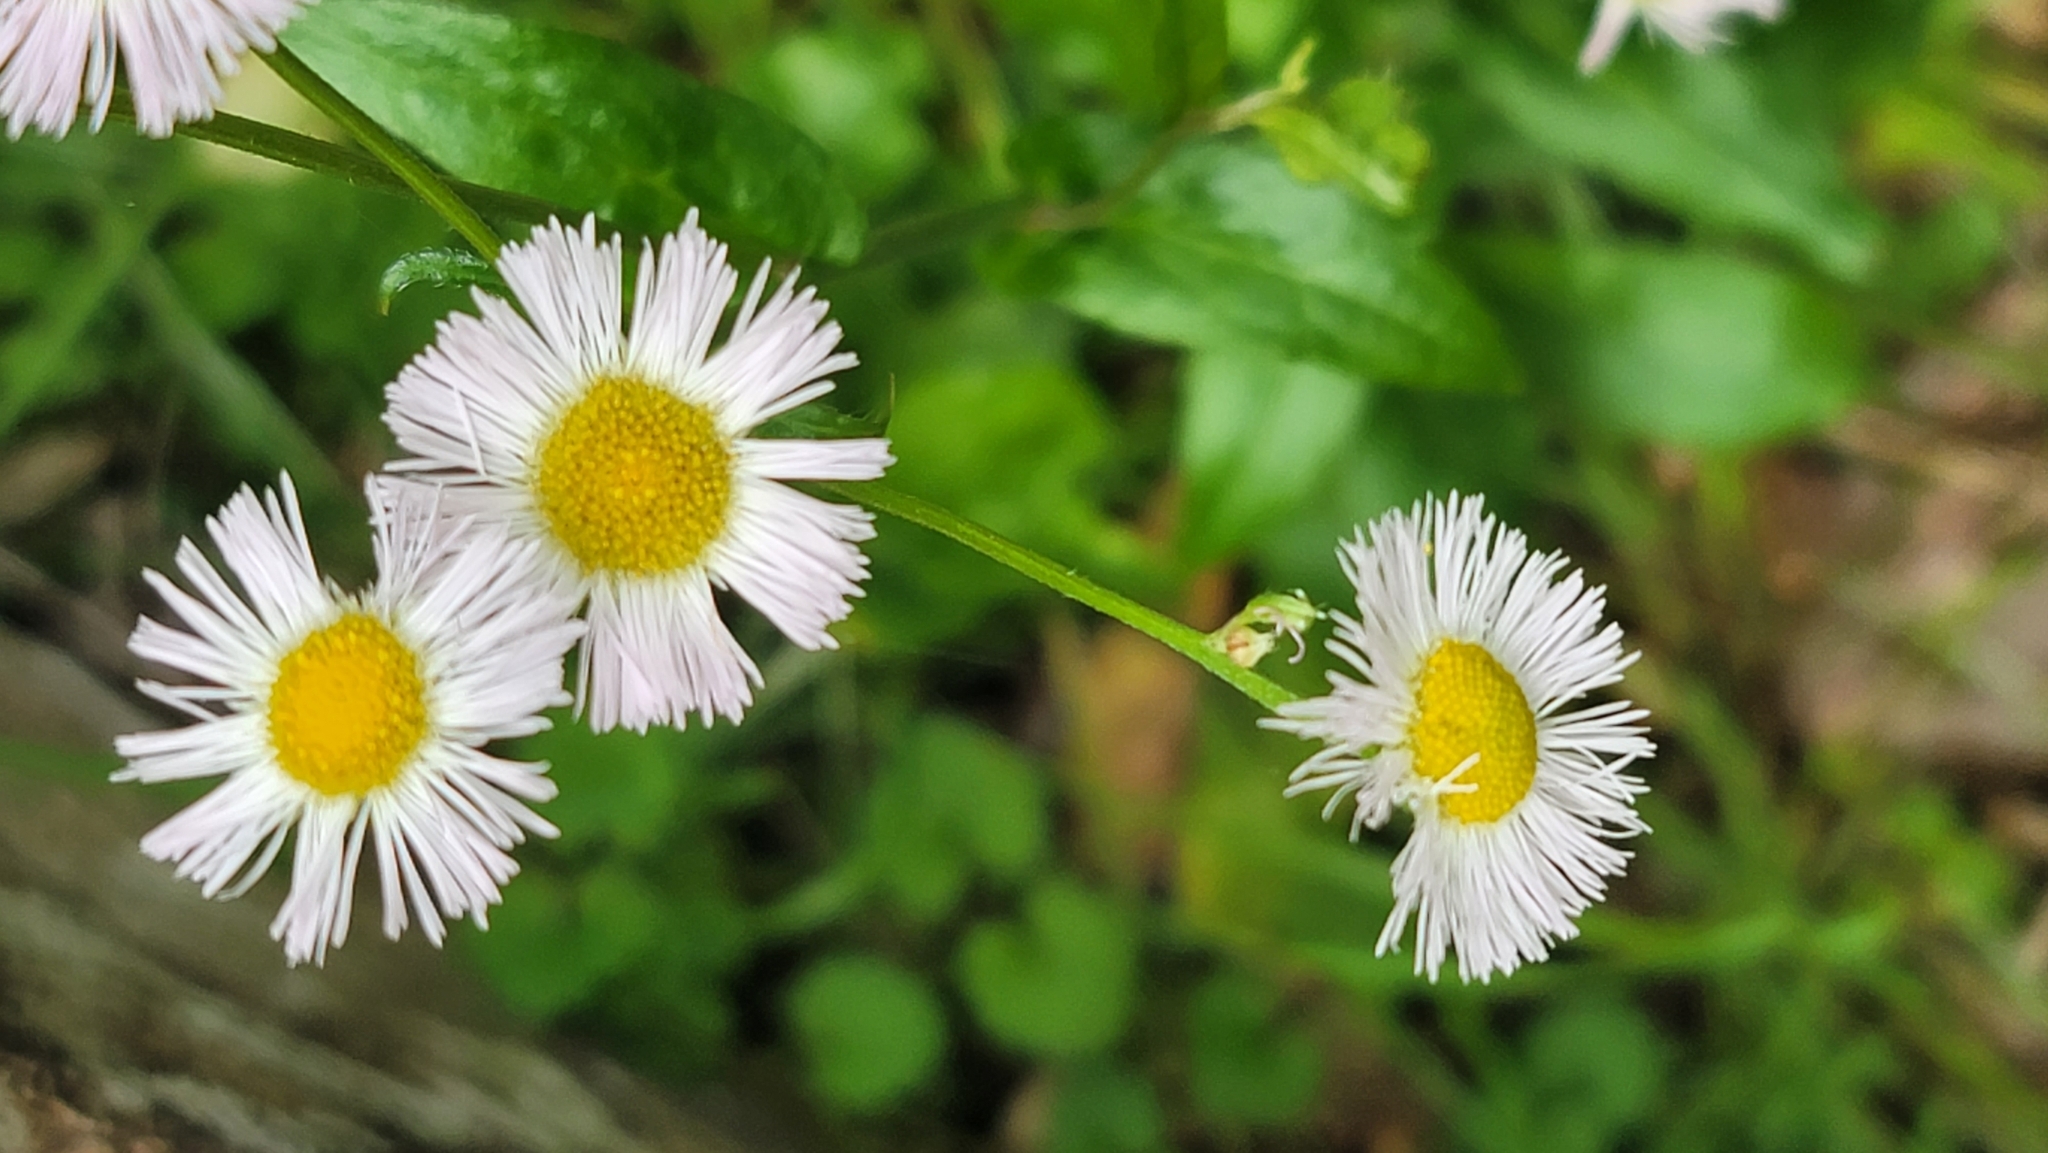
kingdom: Plantae
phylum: Tracheophyta
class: Magnoliopsida
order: Asterales
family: Asteraceae
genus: Erigeron
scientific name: Erigeron philadelphicus
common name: Robin's-plantain
